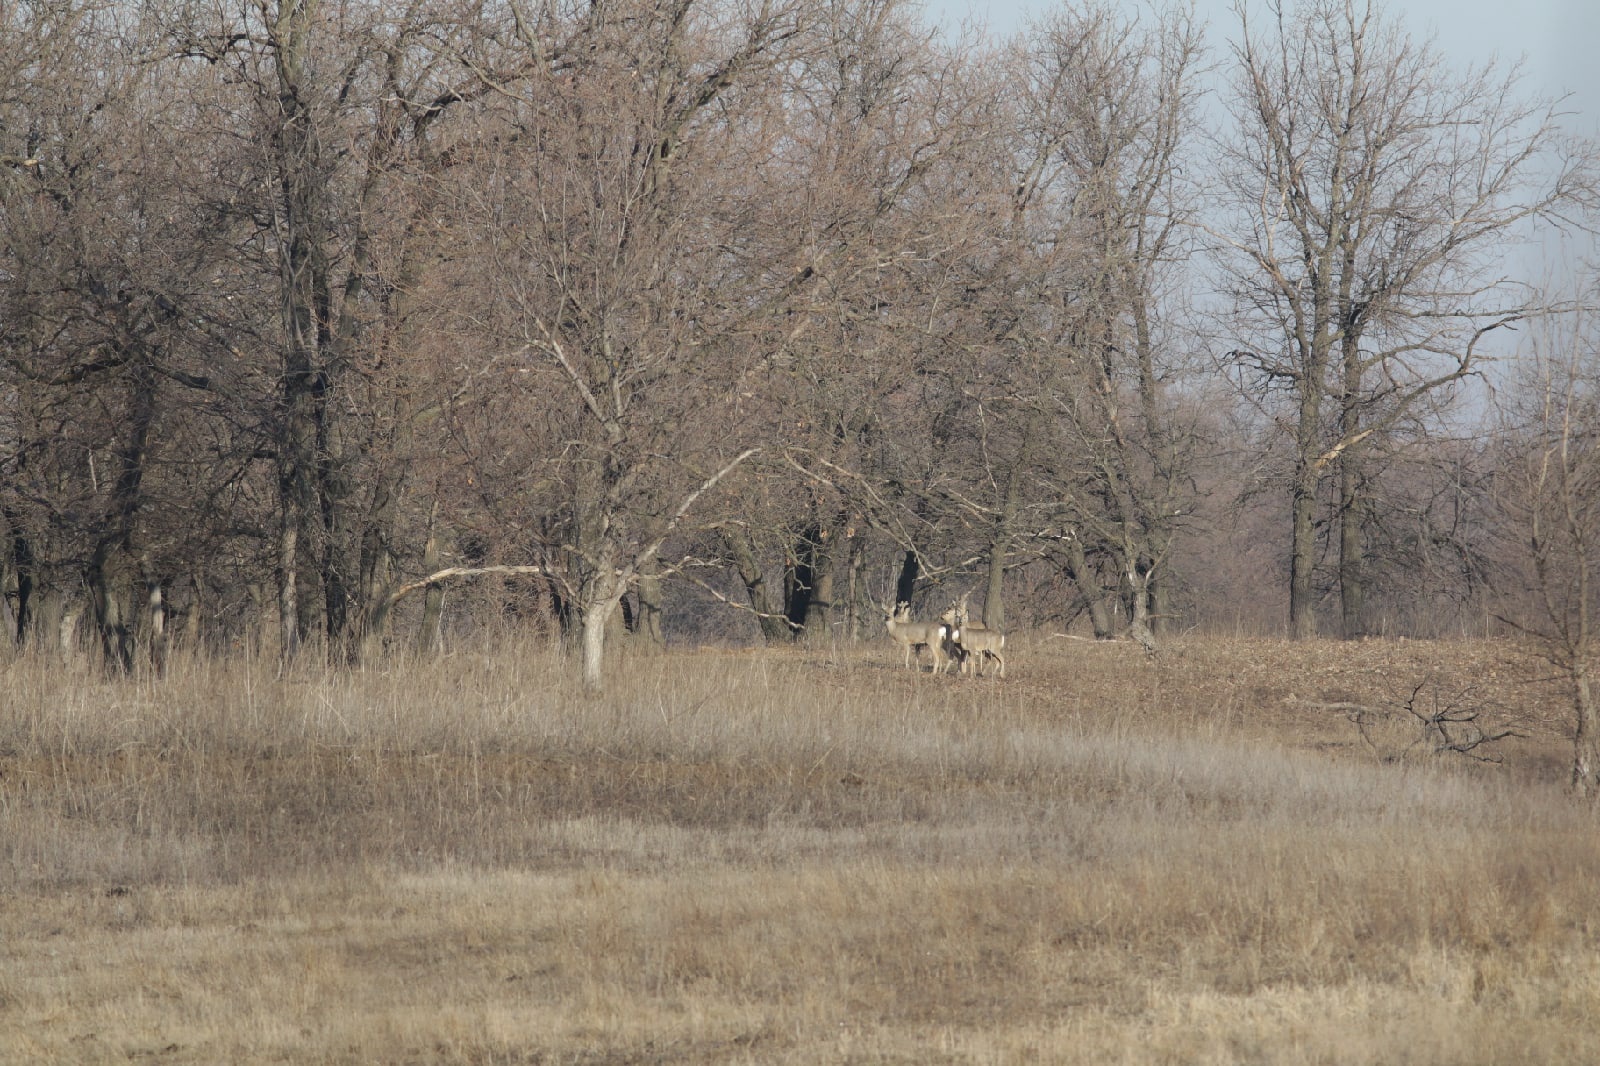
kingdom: Animalia
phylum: Chordata
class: Mammalia
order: Artiodactyla
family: Cervidae
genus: Capreolus
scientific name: Capreolus pygargus
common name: Siberian roe
